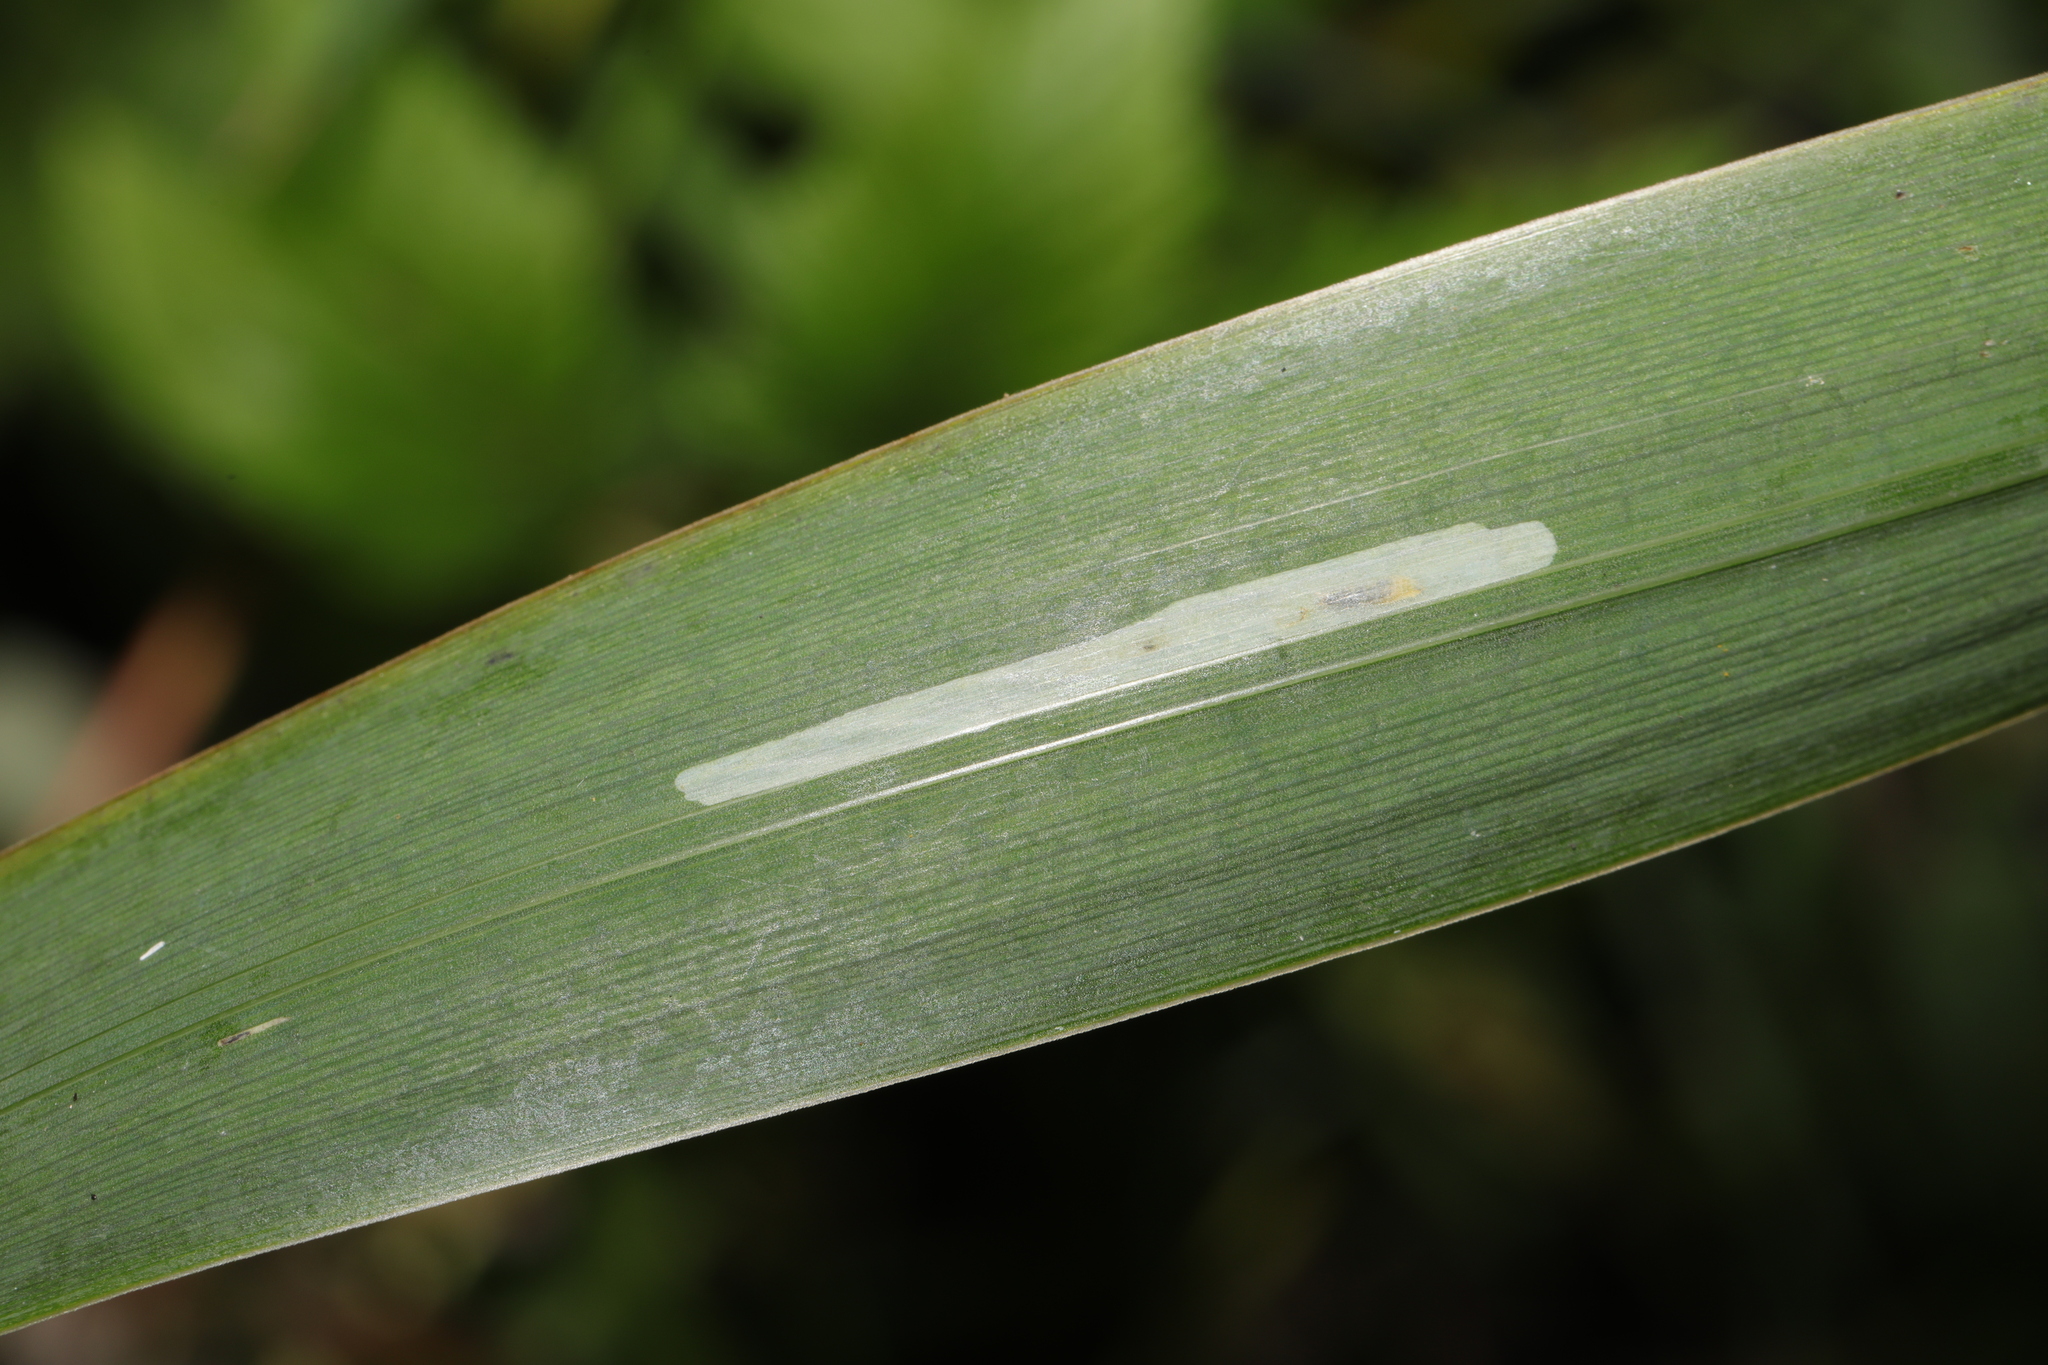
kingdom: Animalia
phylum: Arthropoda
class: Insecta
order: Diptera
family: Agromyzidae
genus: Cerodontha
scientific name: Cerodontha ircos
